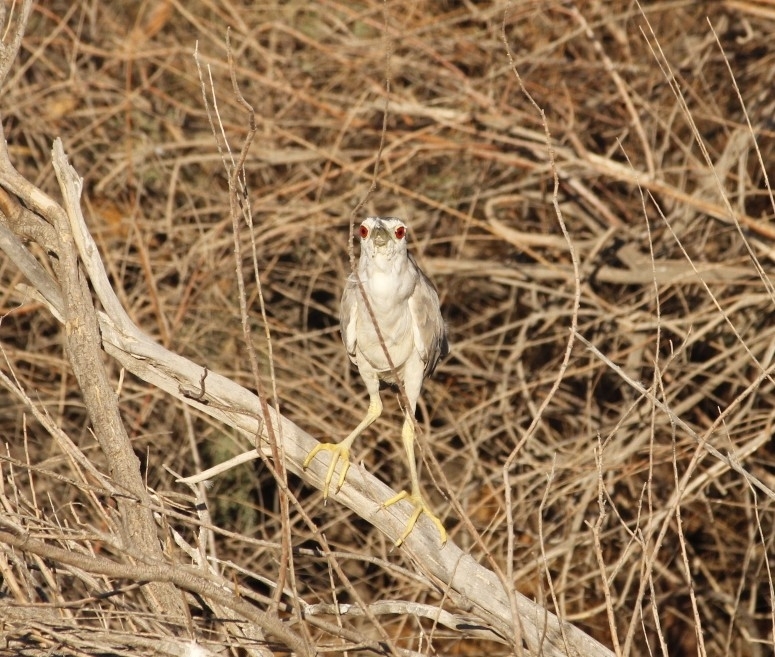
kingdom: Animalia
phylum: Chordata
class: Aves
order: Pelecaniformes
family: Ardeidae
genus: Nycticorax
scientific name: Nycticorax nycticorax
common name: Black-crowned night heron
